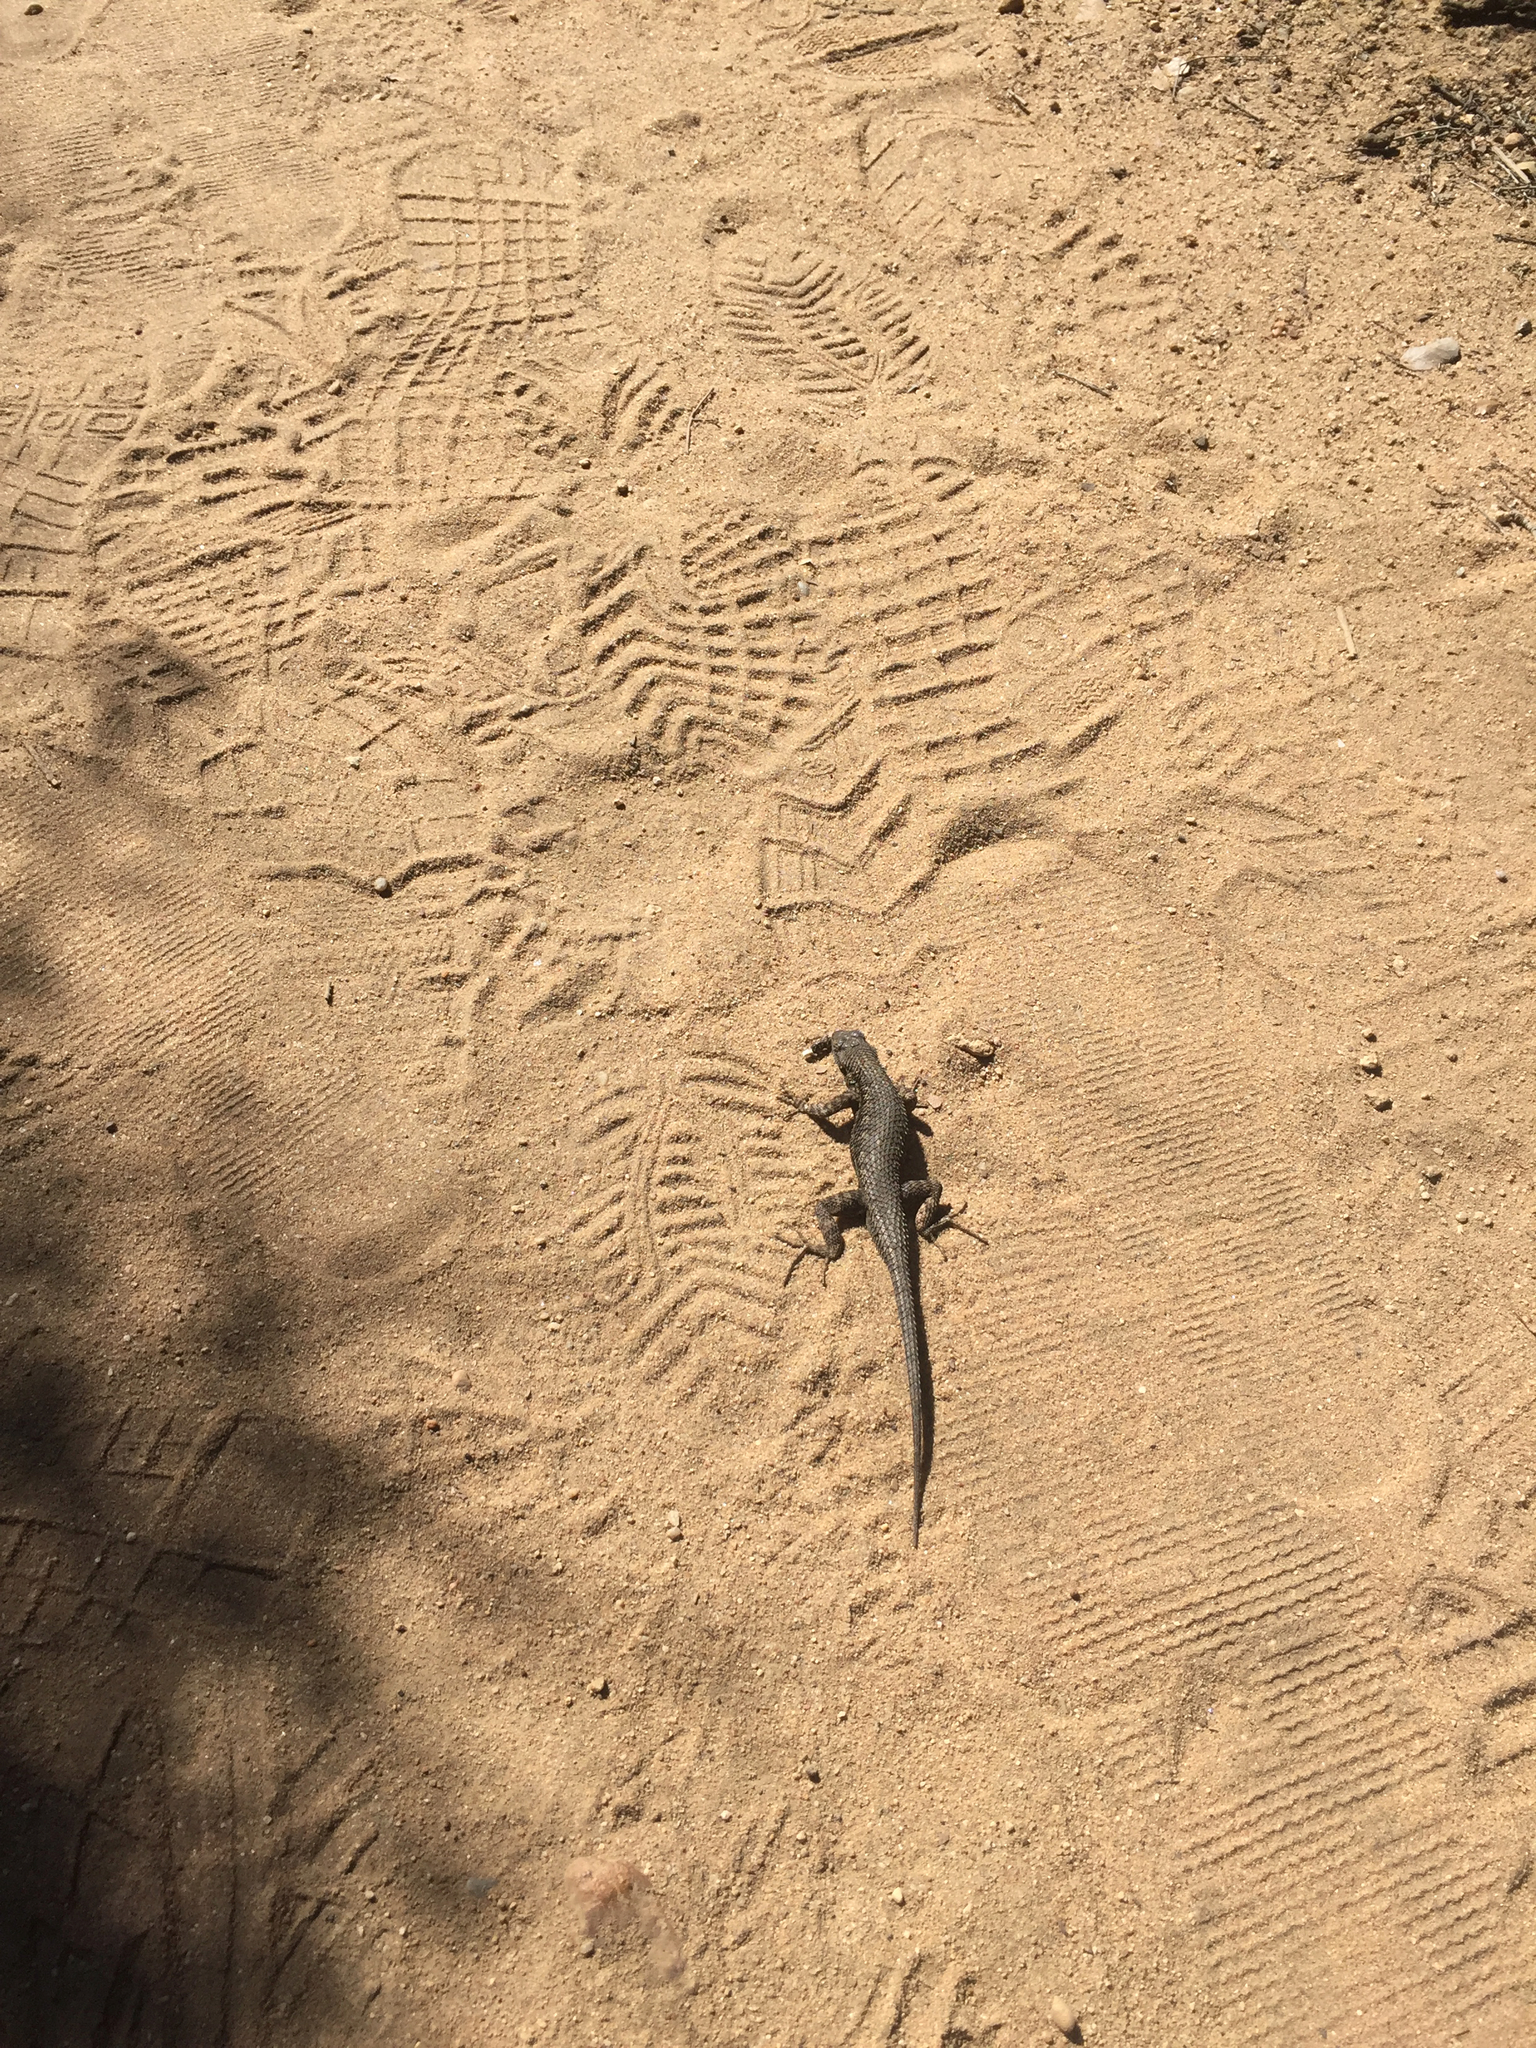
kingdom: Animalia
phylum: Chordata
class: Squamata
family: Phrynosomatidae
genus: Sceloporus
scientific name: Sceloporus occidentalis
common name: Western fence lizard
